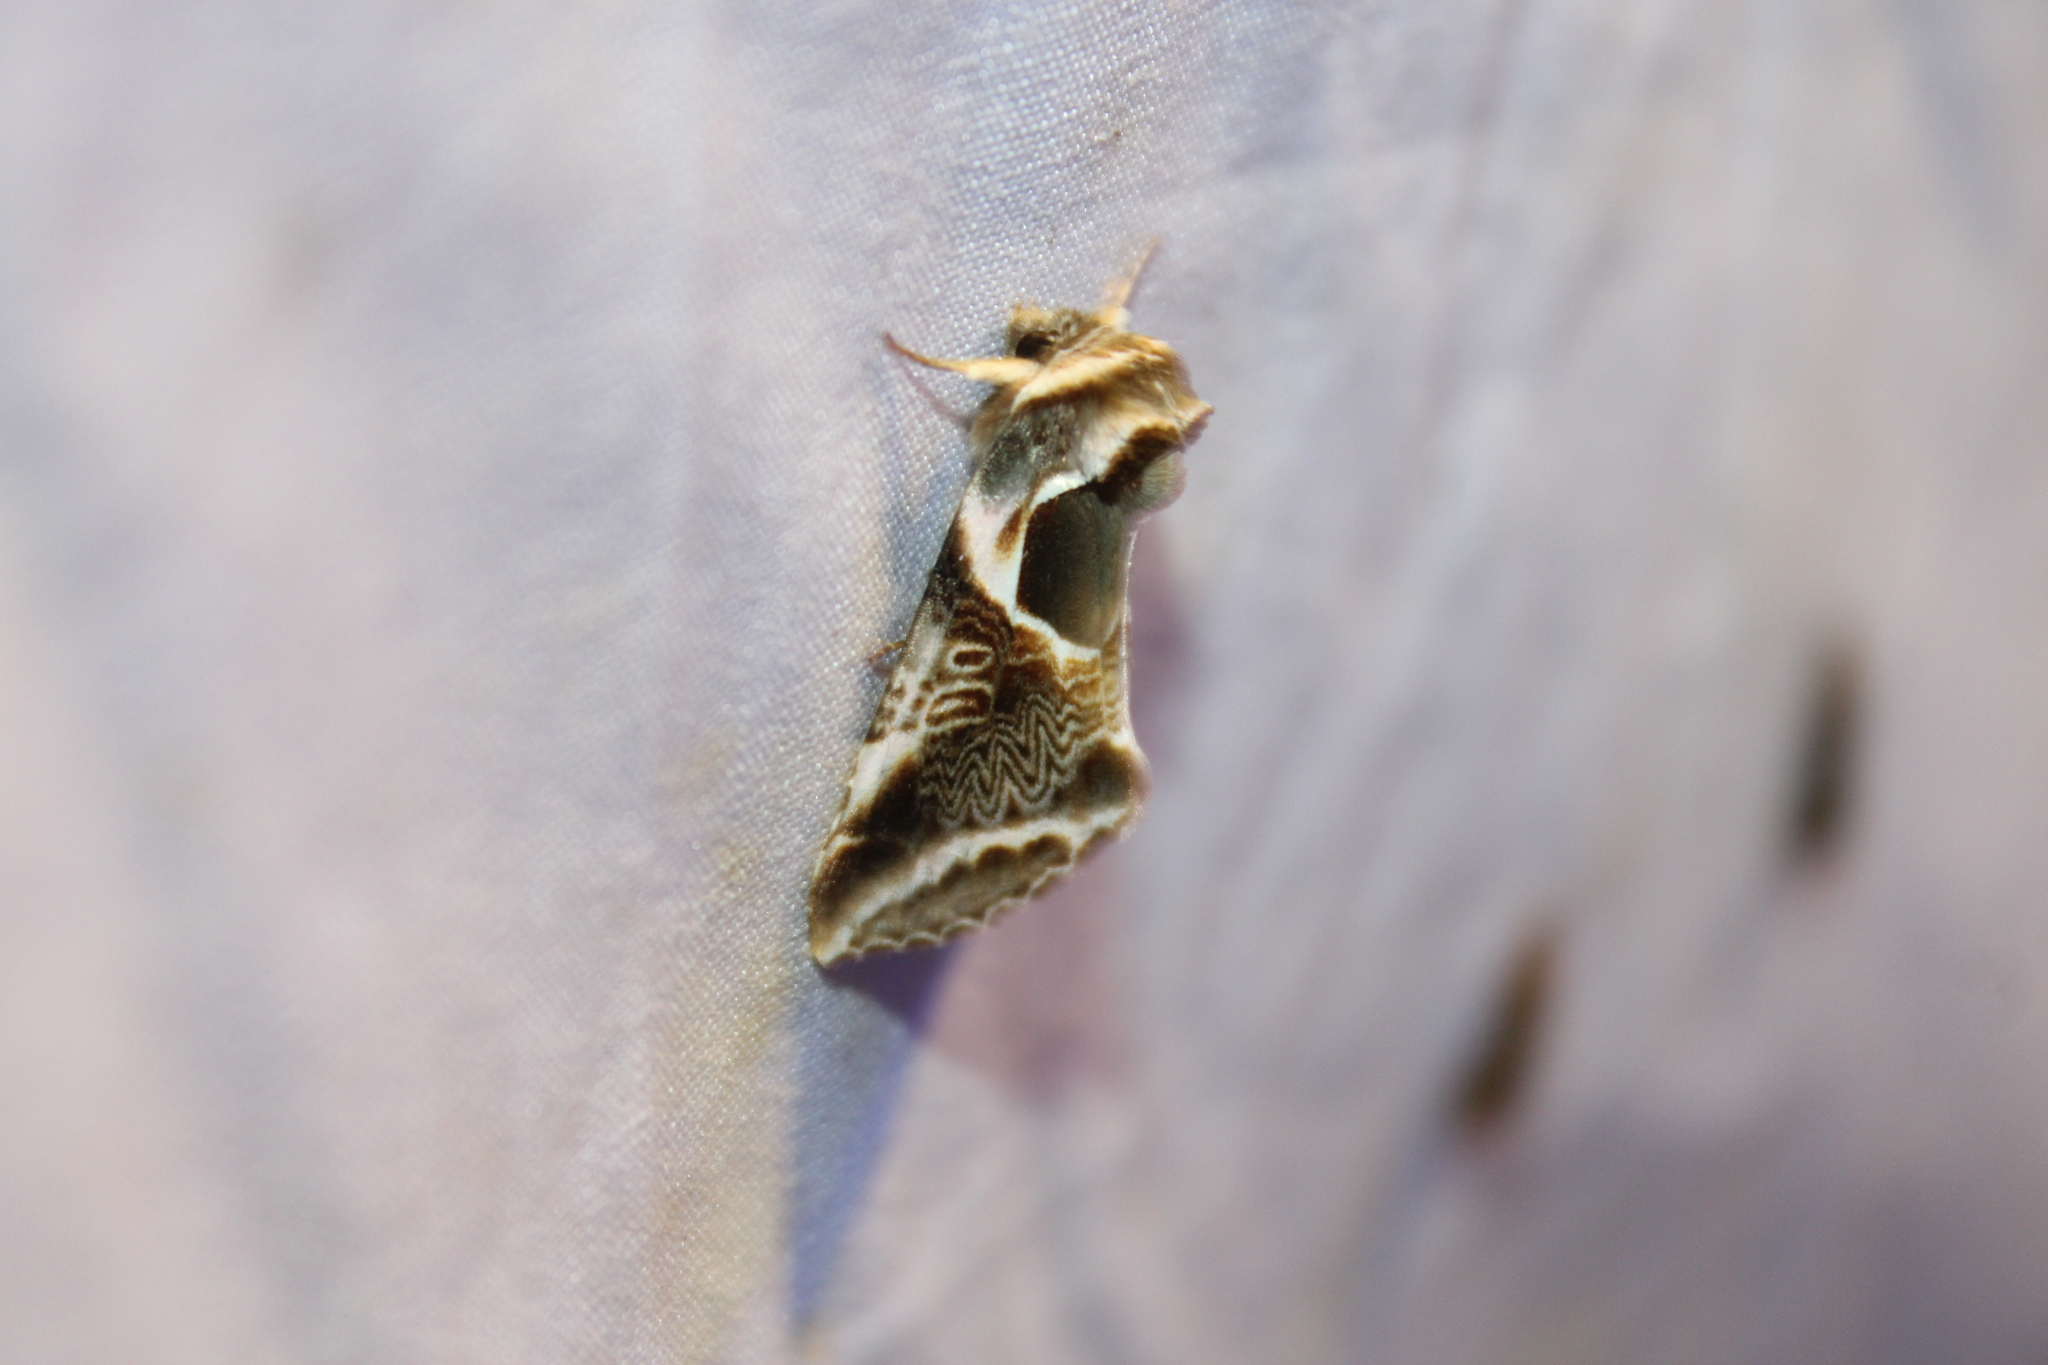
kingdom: Animalia
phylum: Arthropoda
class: Insecta
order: Lepidoptera
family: Drepanidae
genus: Habrosyne
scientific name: Habrosyne scripta
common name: Lettered habrosyne moth
